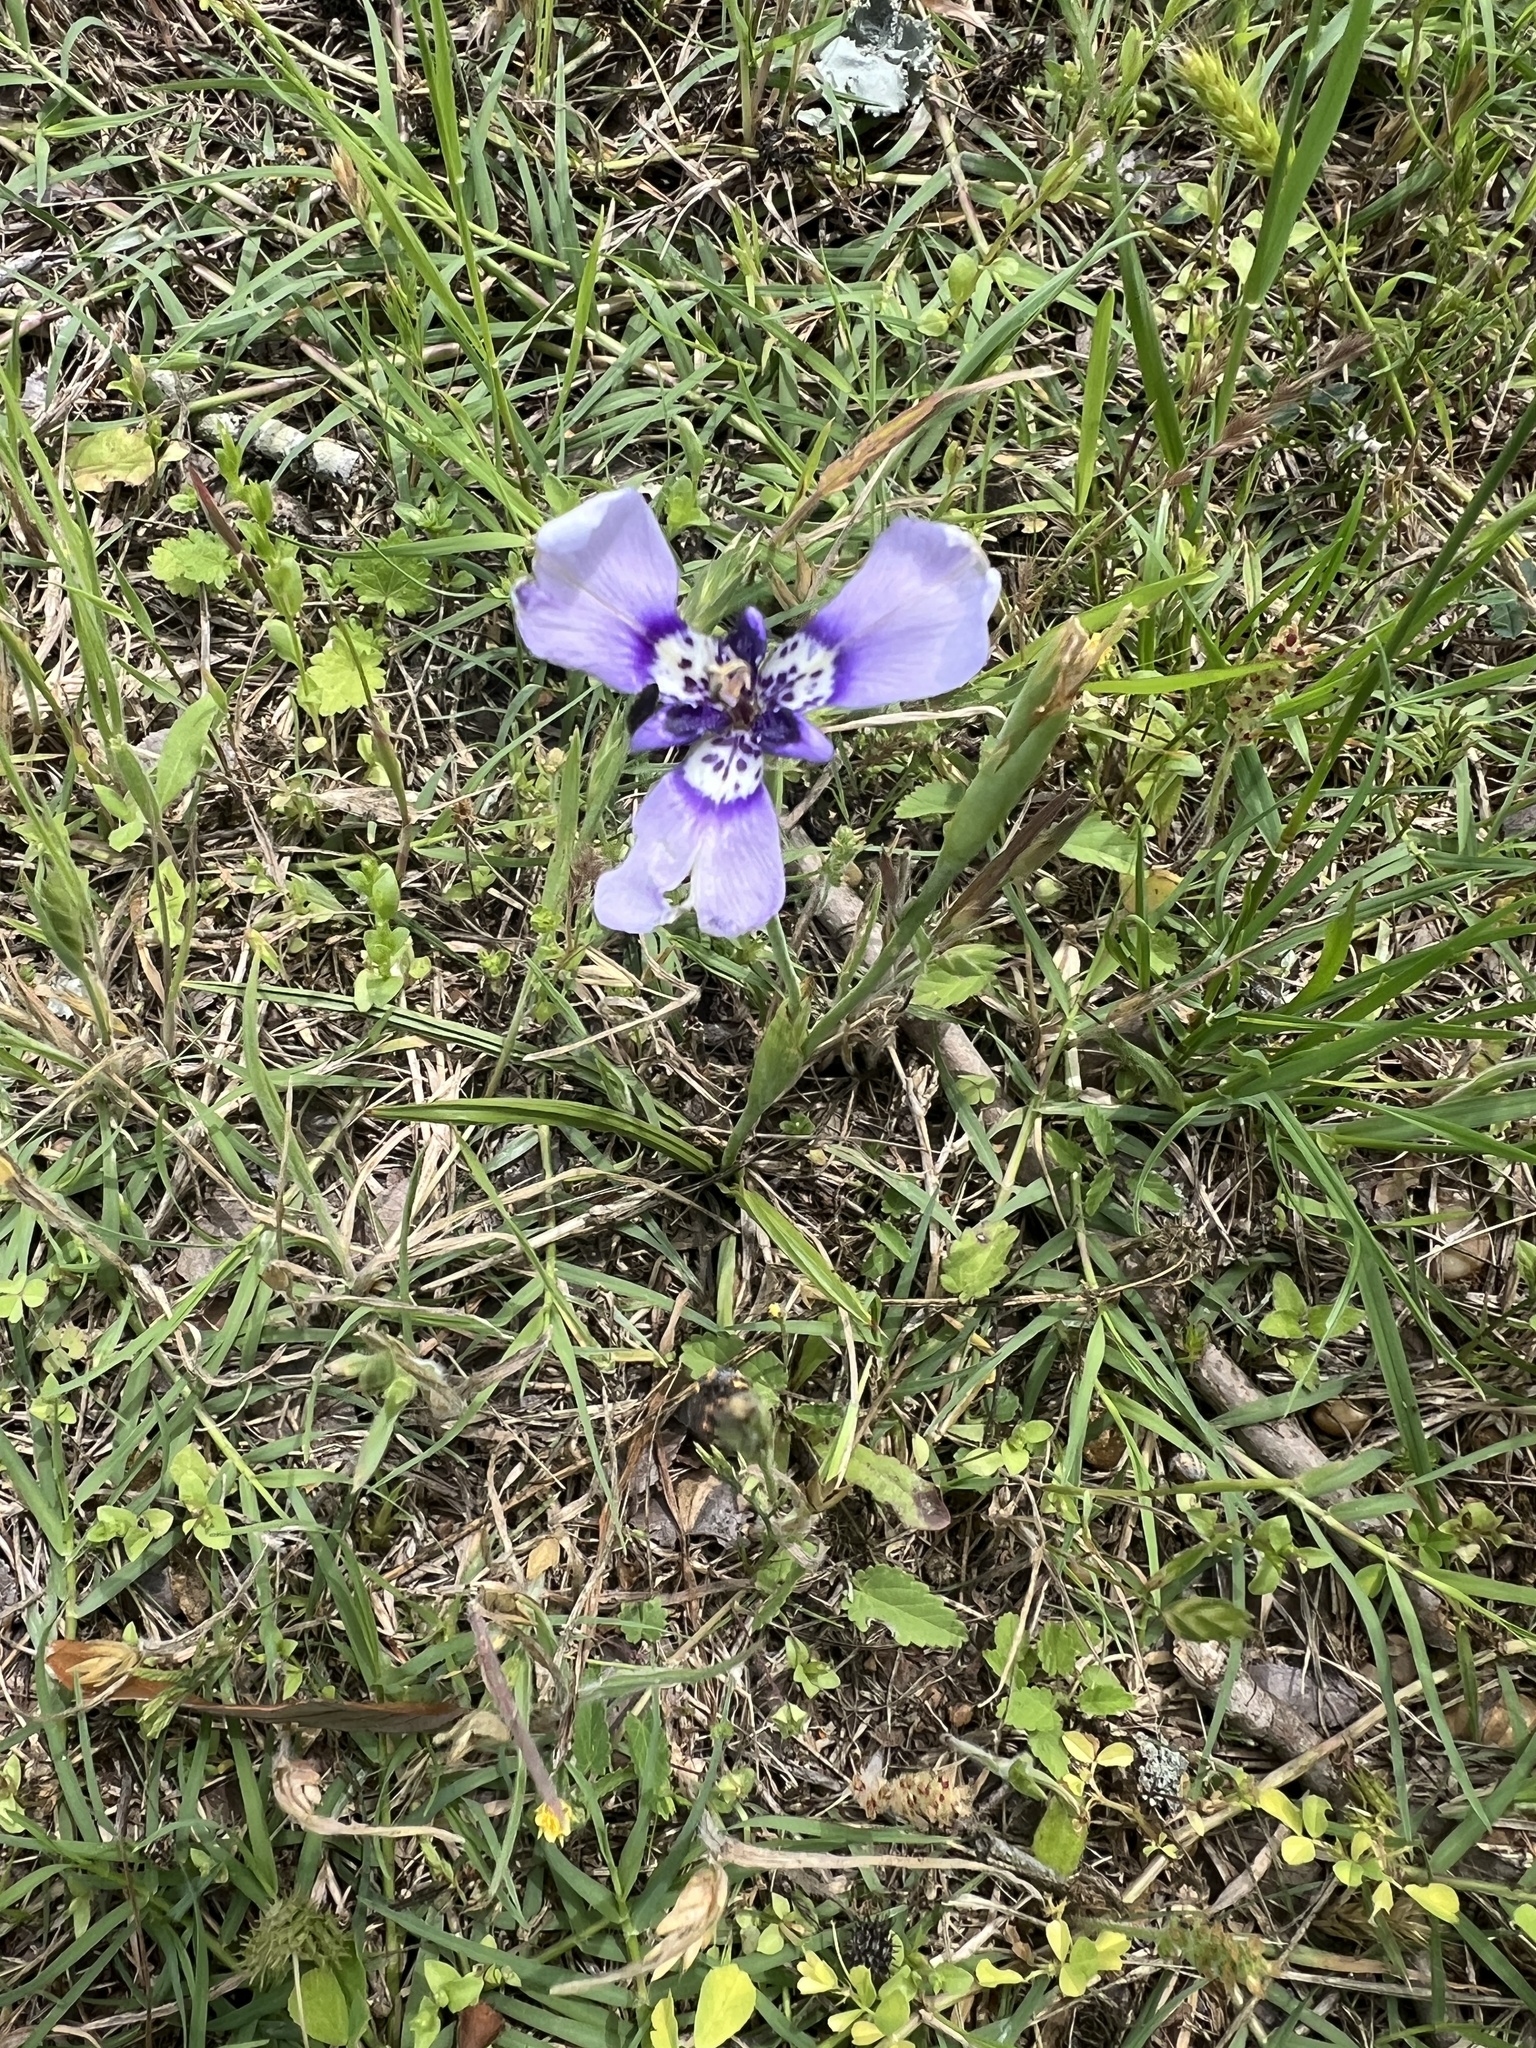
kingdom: Plantae
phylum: Tracheophyta
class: Liliopsida
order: Asparagales
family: Iridaceae
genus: Herbertia
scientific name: Herbertia lahue
